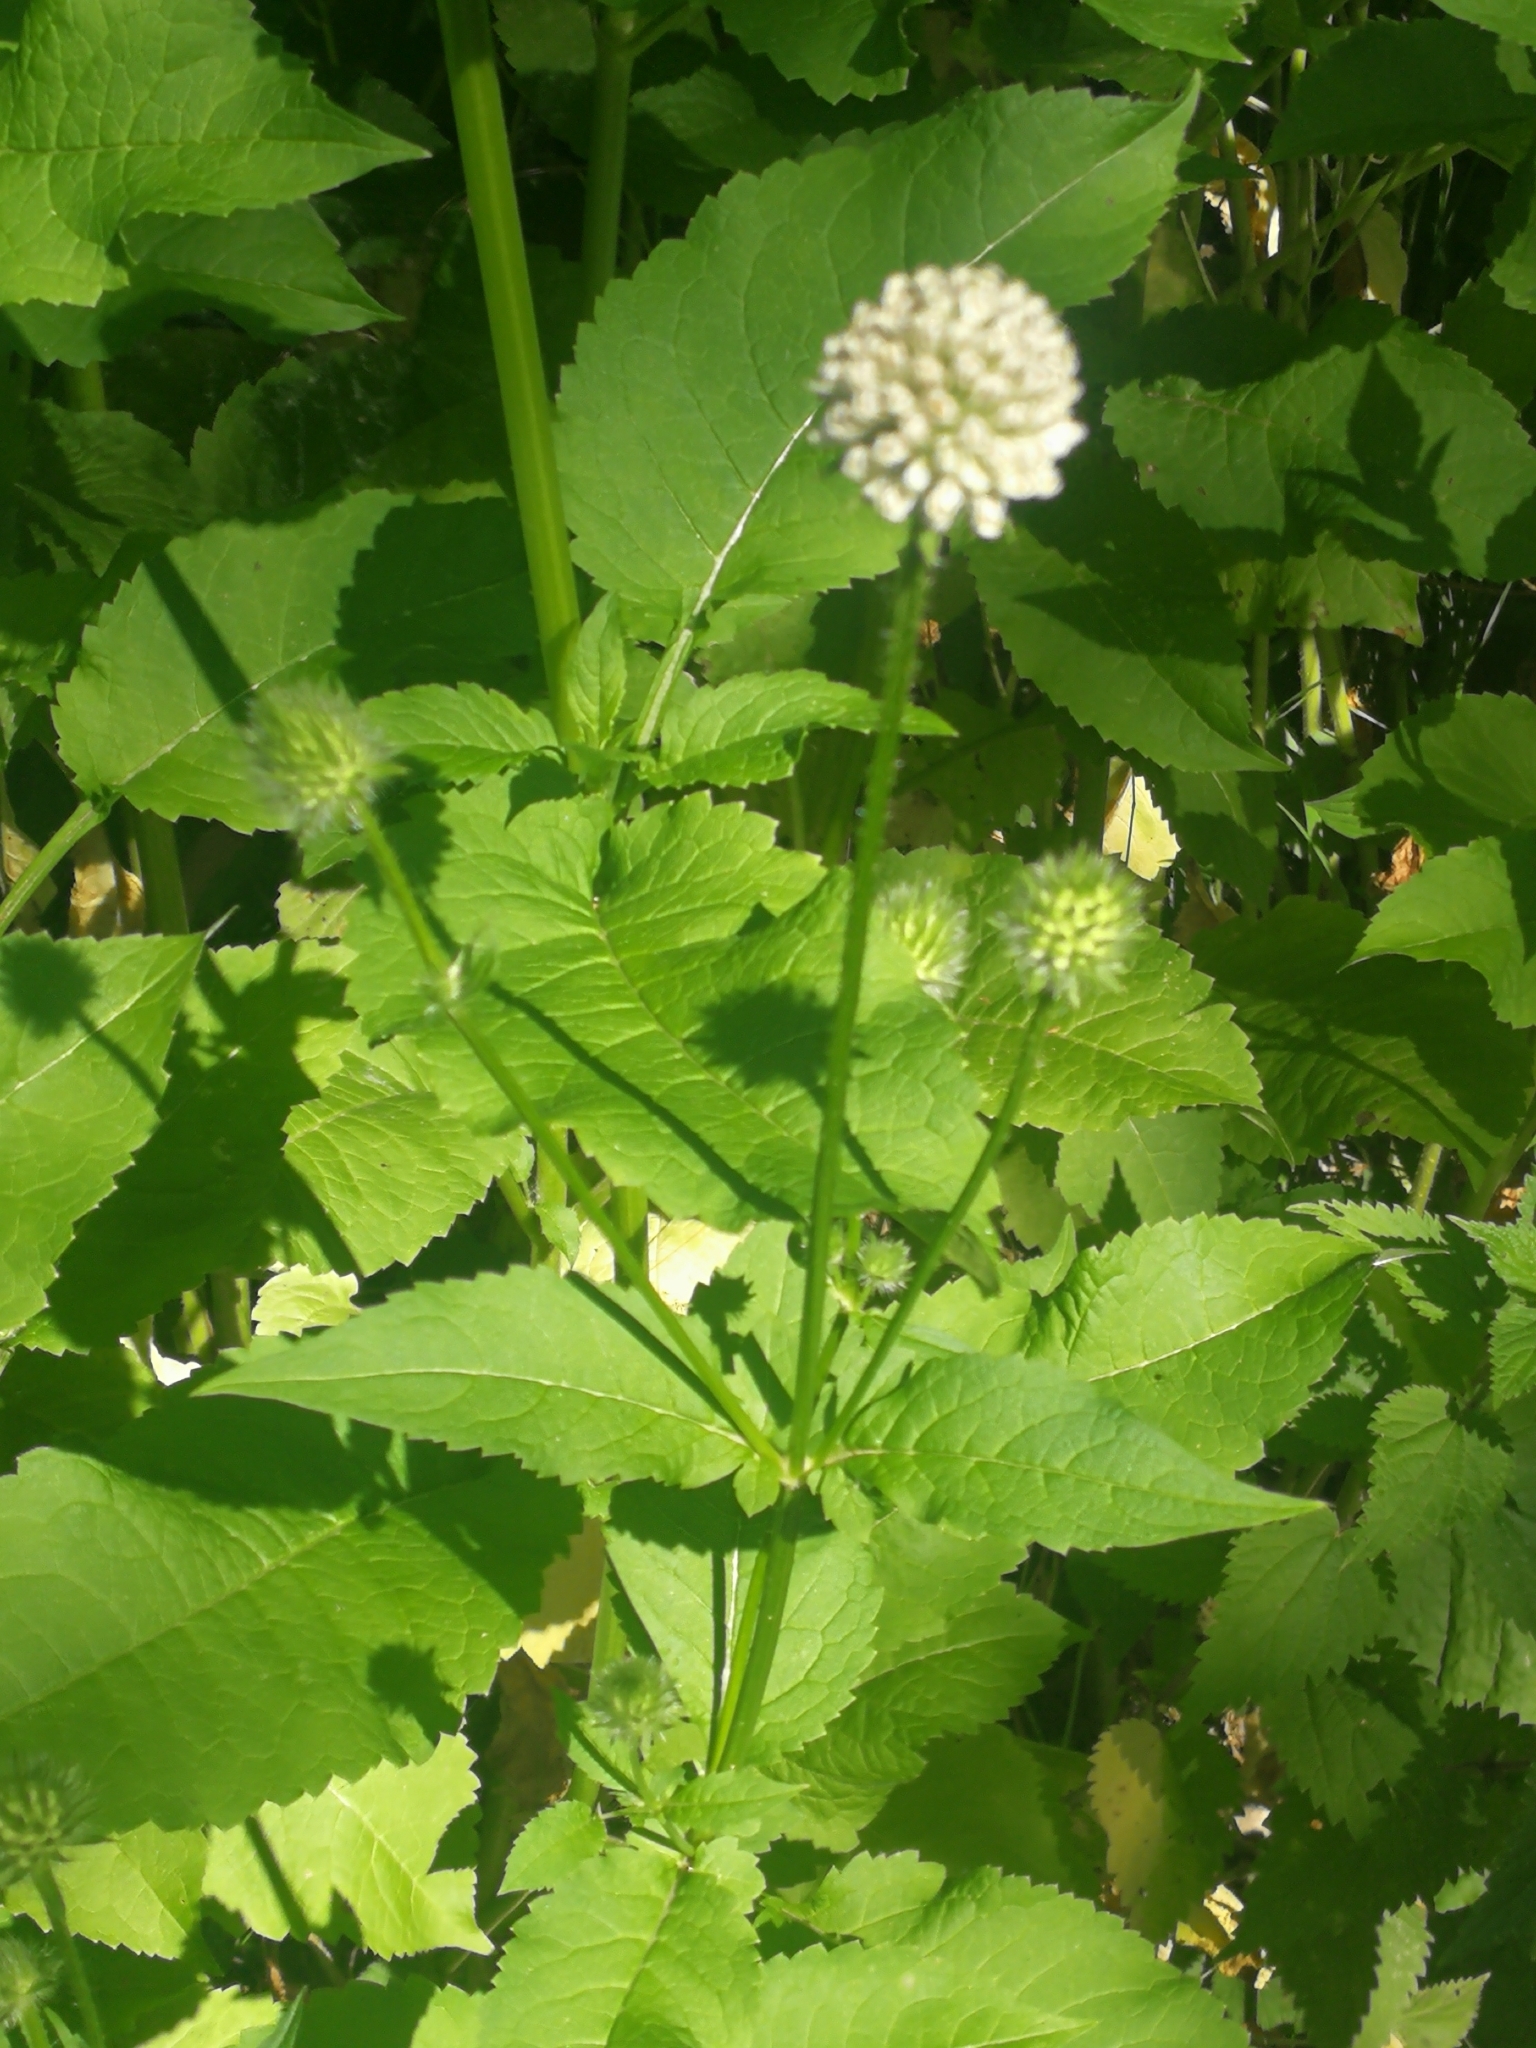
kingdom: Plantae
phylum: Tracheophyta
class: Magnoliopsida
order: Dipsacales
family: Caprifoliaceae
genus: Dipsacus
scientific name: Dipsacus pilosus
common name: Small teasel
